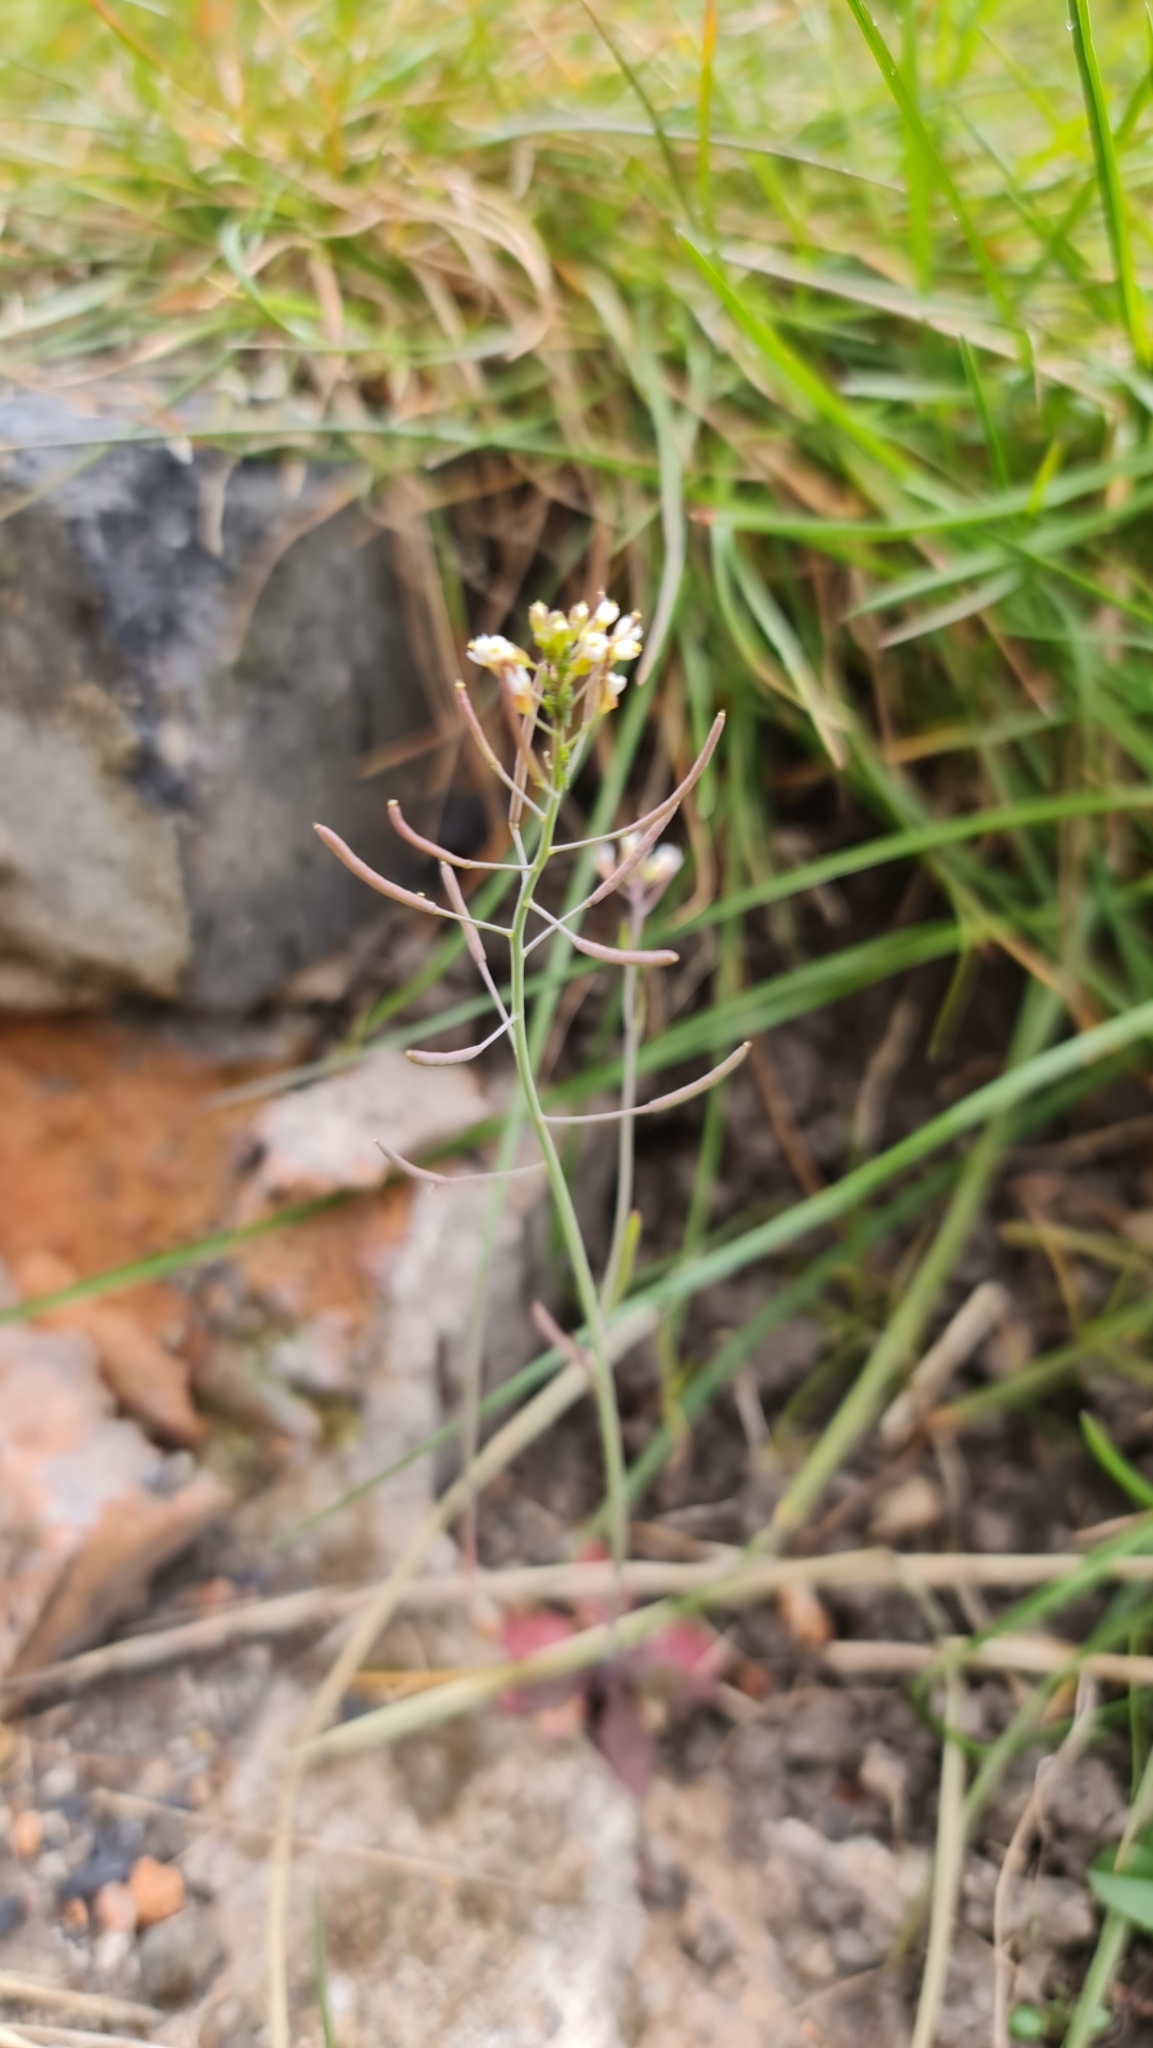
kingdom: Plantae
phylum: Tracheophyta
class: Magnoliopsida
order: Brassicales
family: Brassicaceae
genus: Arabidopsis
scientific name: Arabidopsis thaliana
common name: Thale cress
